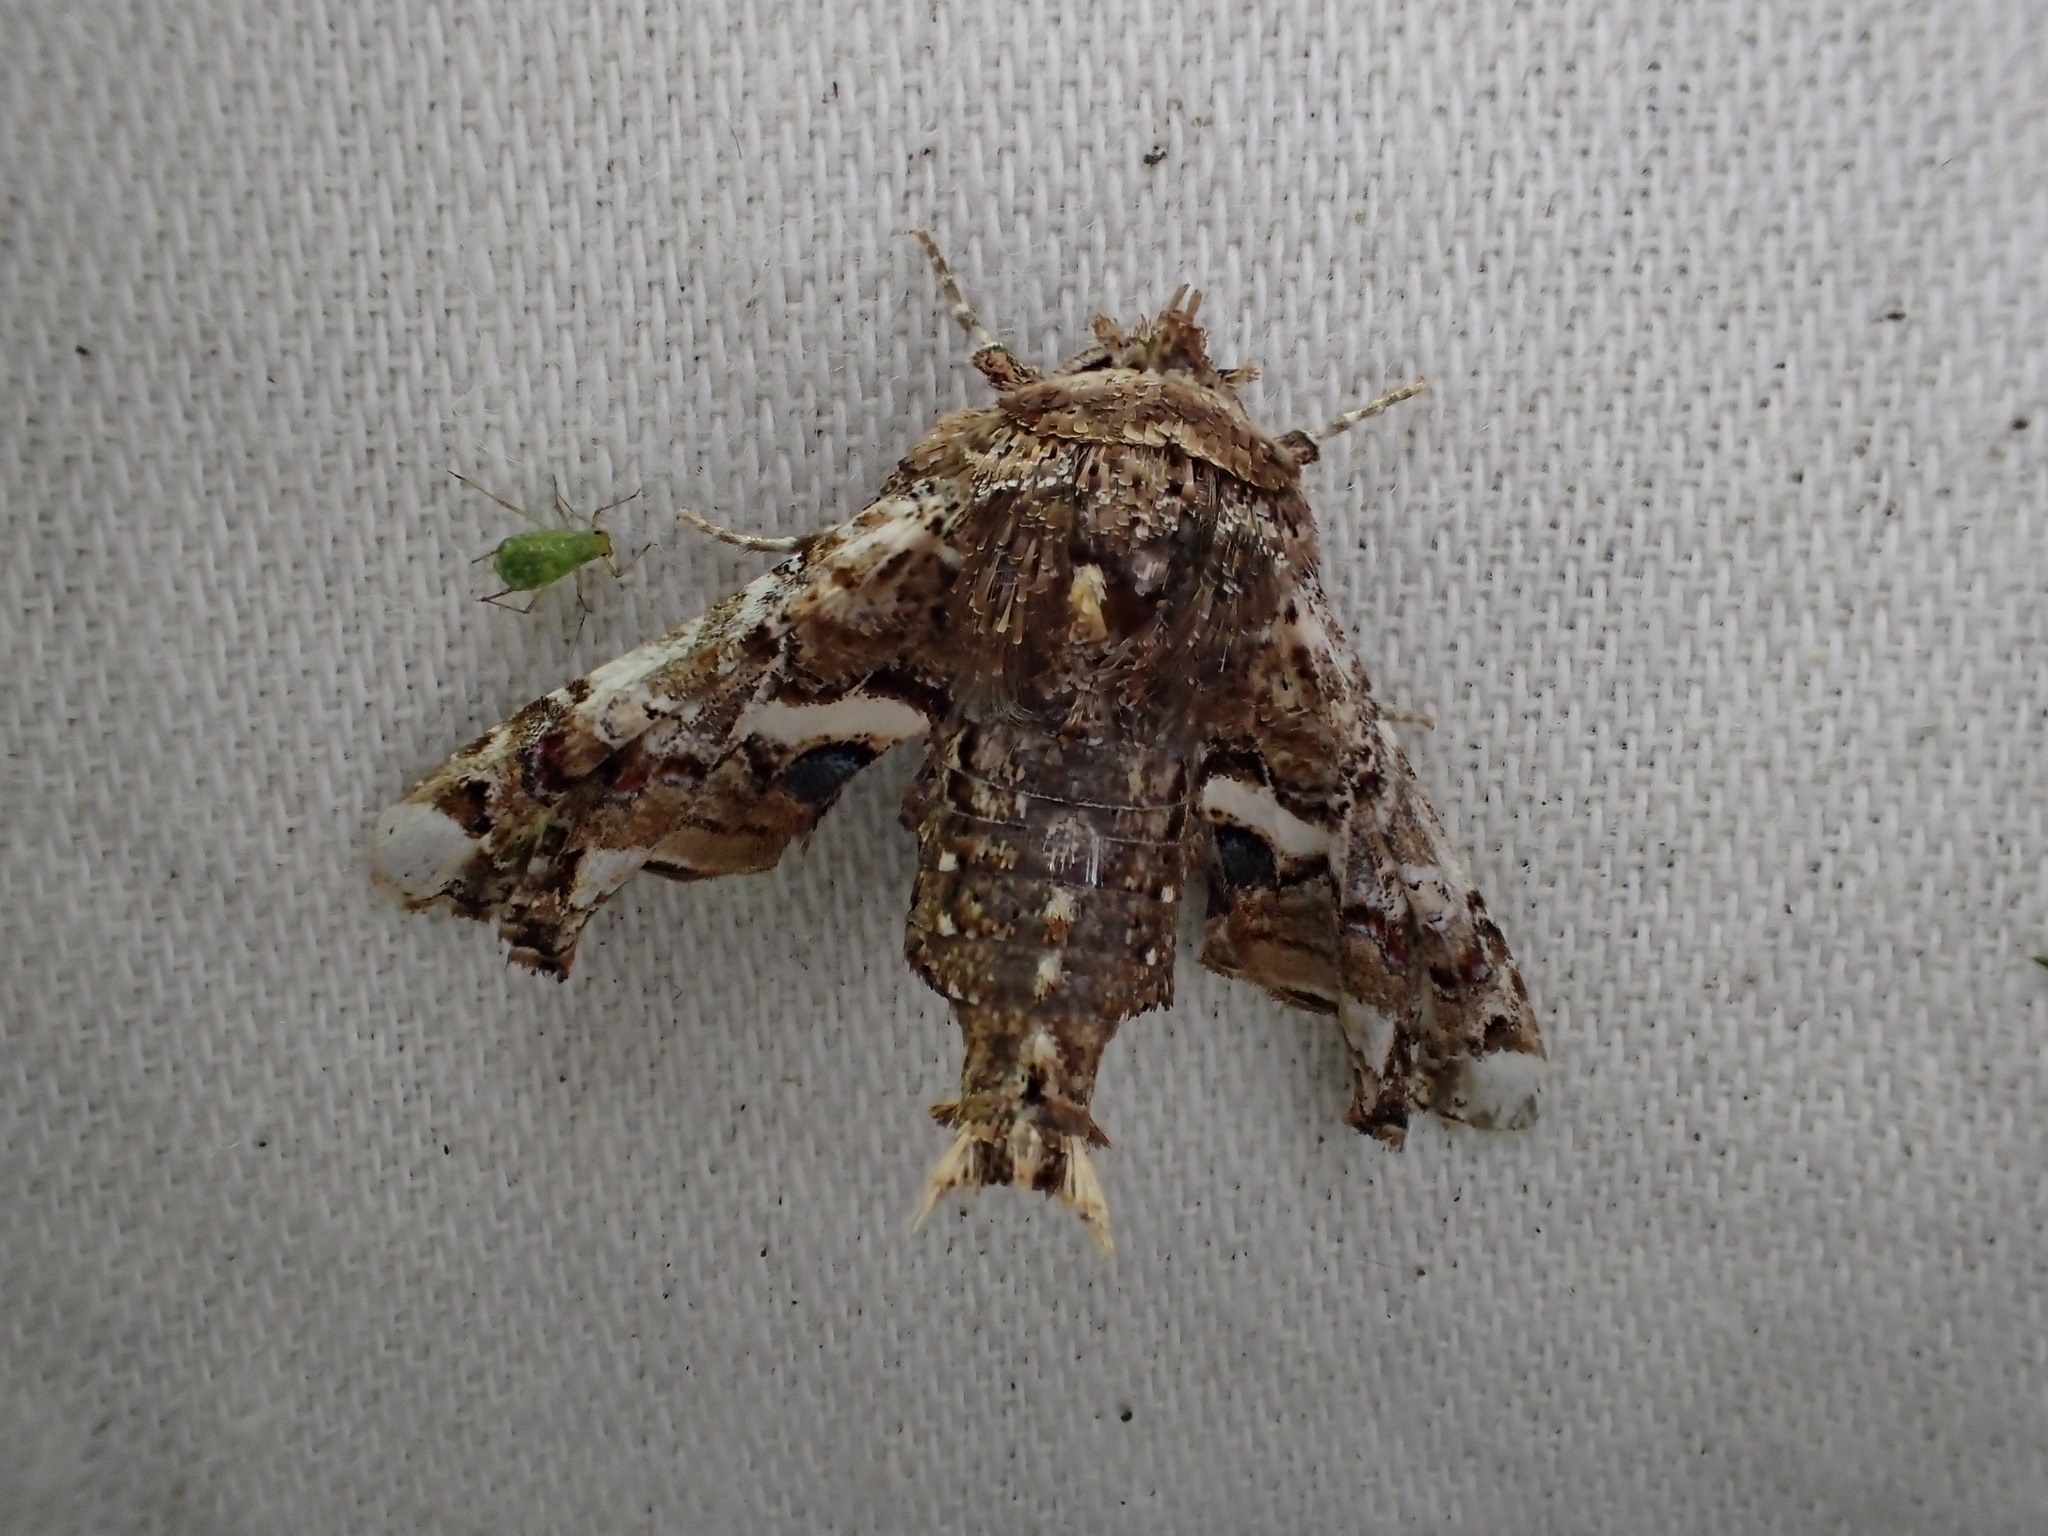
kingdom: Animalia
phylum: Arthropoda
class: Insecta
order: Lepidoptera
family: Euteliidae
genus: Eutelia
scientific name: Eutelia adulatrix
